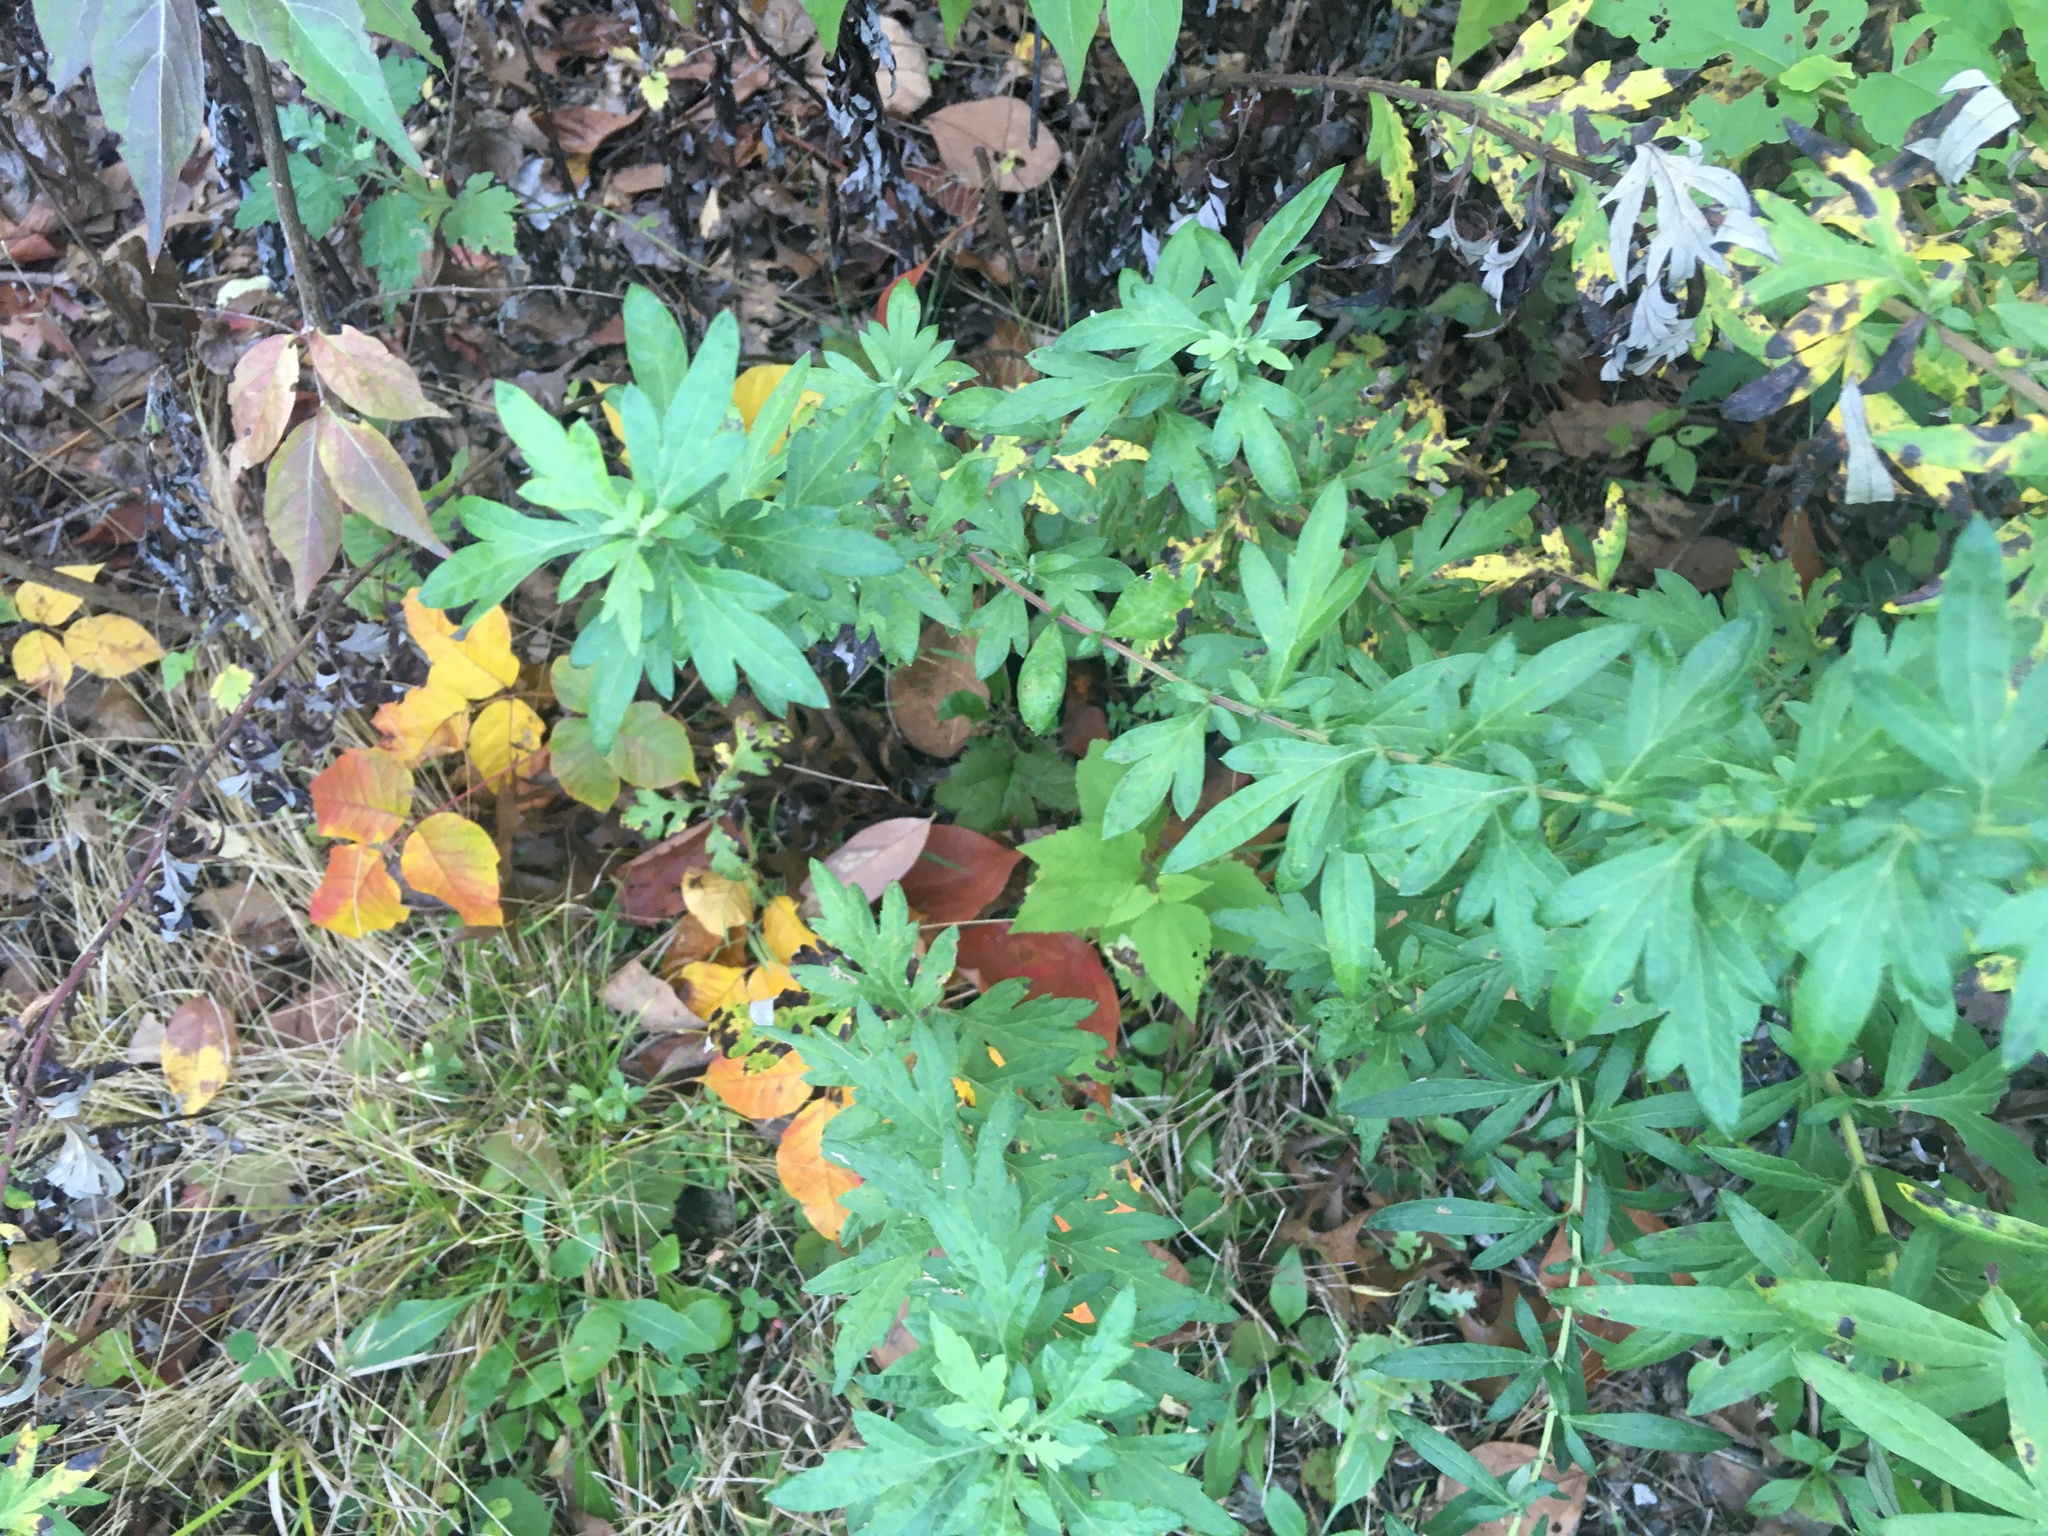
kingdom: Plantae
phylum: Tracheophyta
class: Magnoliopsida
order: Asterales
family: Asteraceae
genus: Artemisia
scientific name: Artemisia vulgaris
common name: Mugwort
